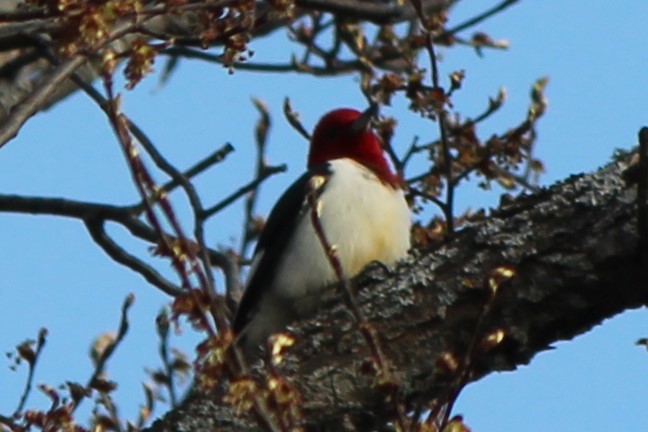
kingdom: Animalia
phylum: Chordata
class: Aves
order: Piciformes
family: Picidae
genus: Melanerpes
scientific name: Melanerpes erythrocephalus
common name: Red-headed woodpecker
